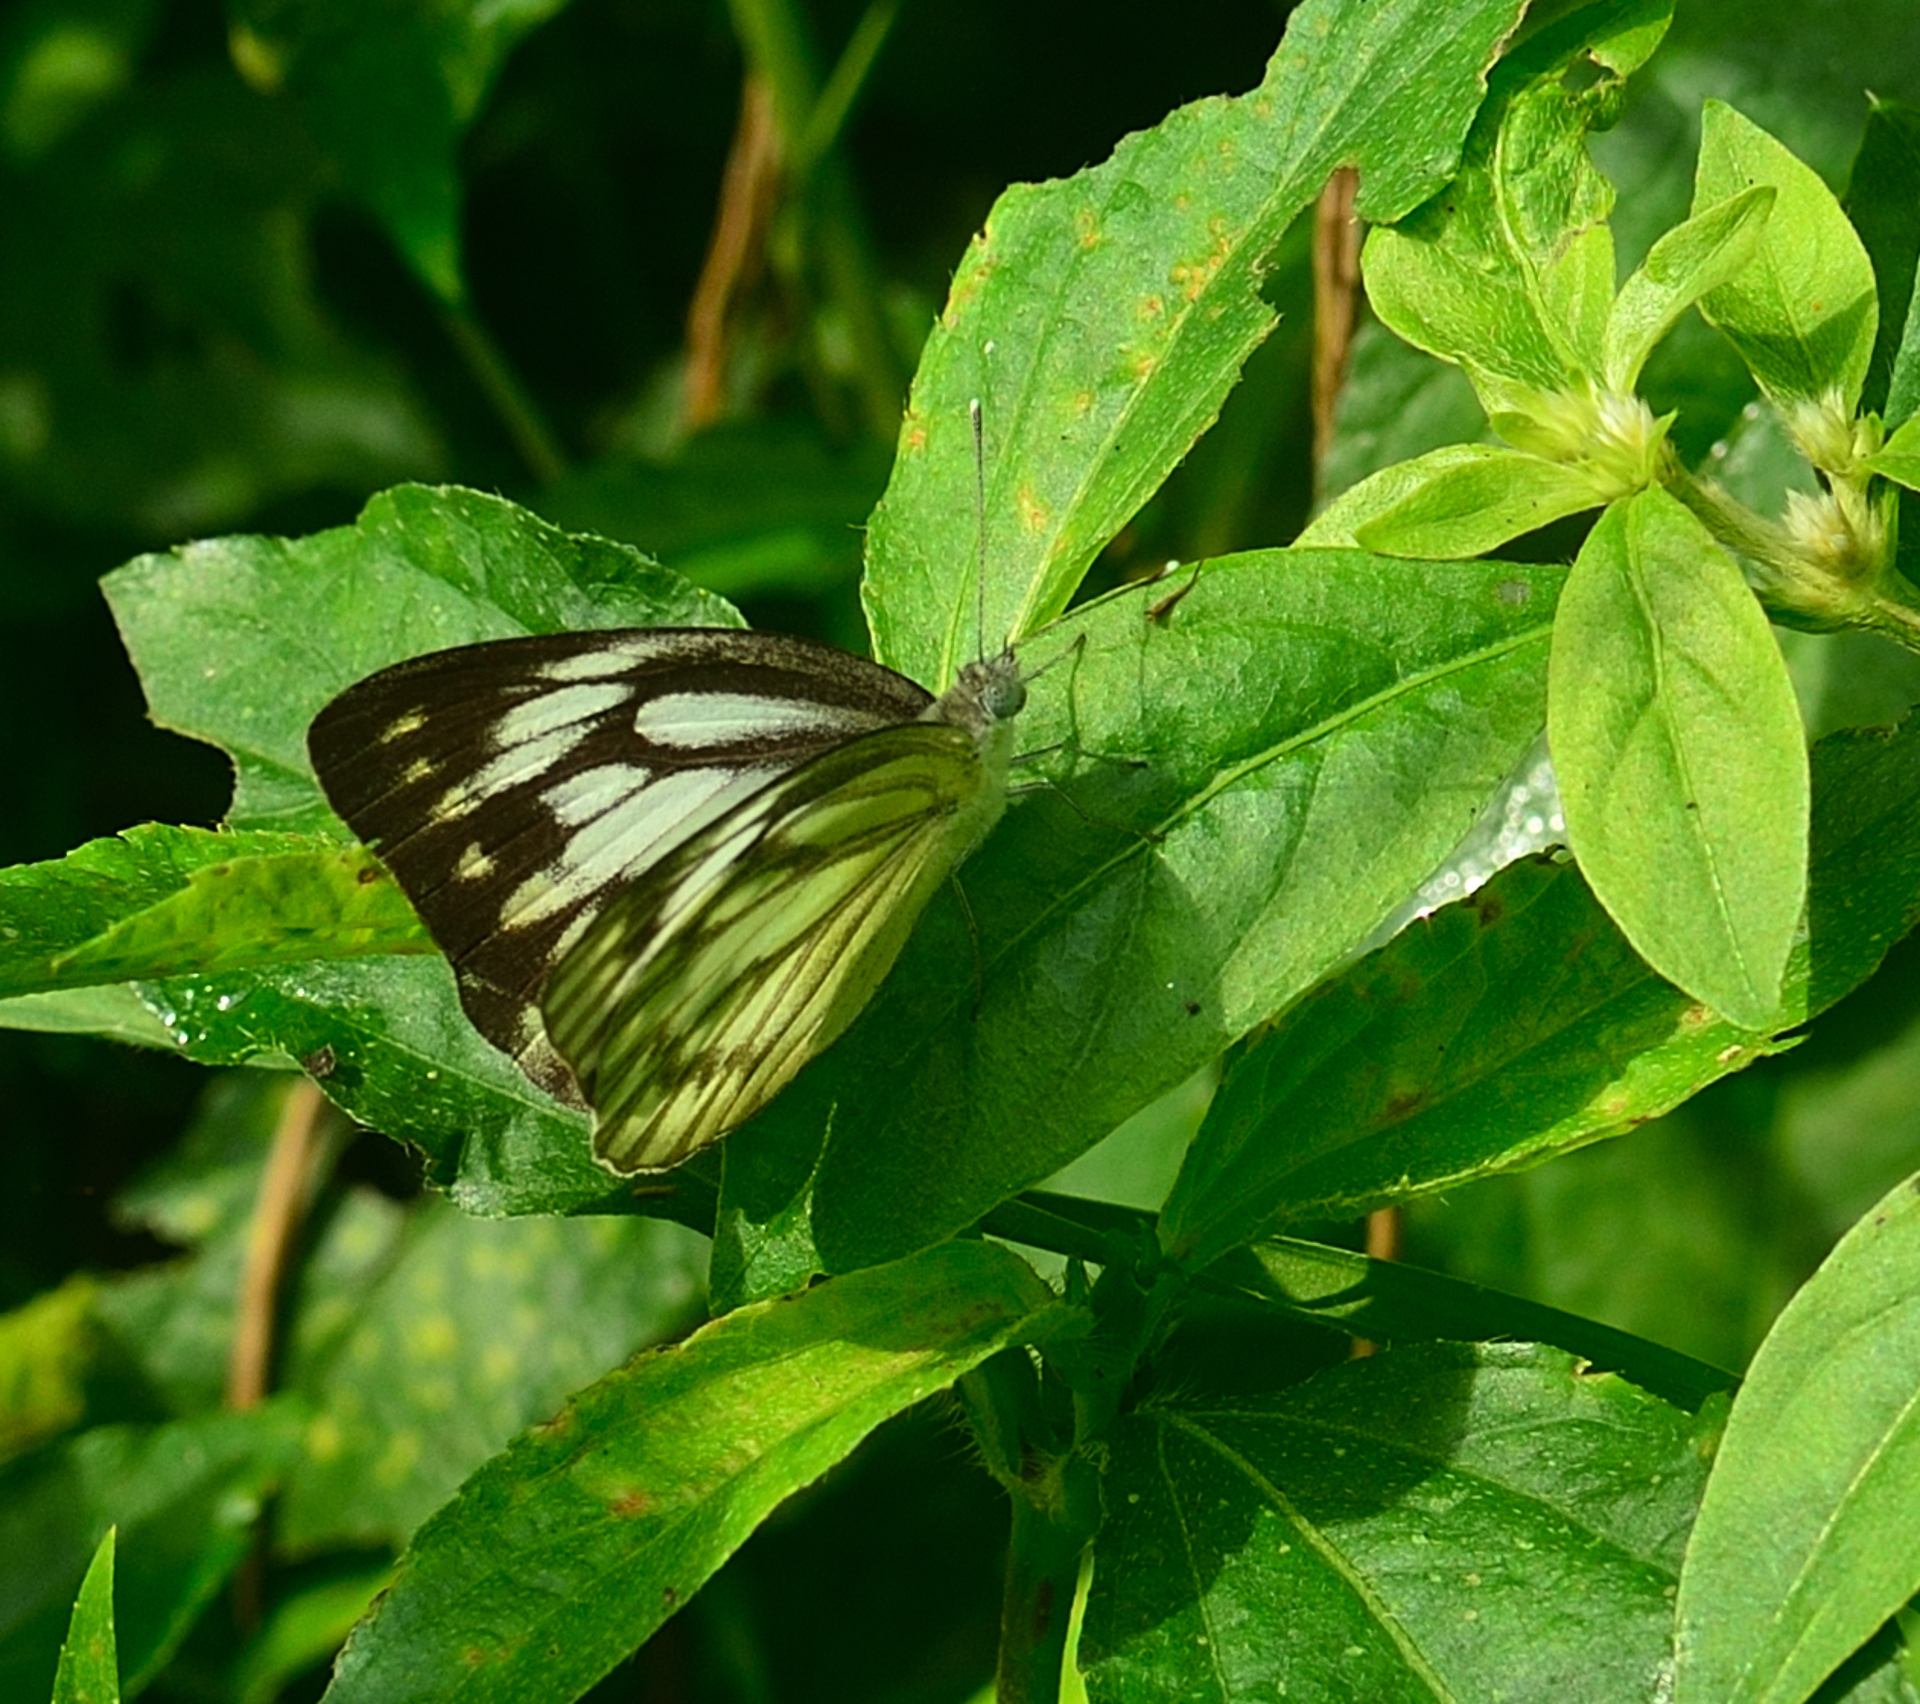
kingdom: Animalia
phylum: Arthropoda
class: Insecta
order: Lepidoptera
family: Pieridae
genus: Cepora
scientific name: Cepora nerissa
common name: Common gull
